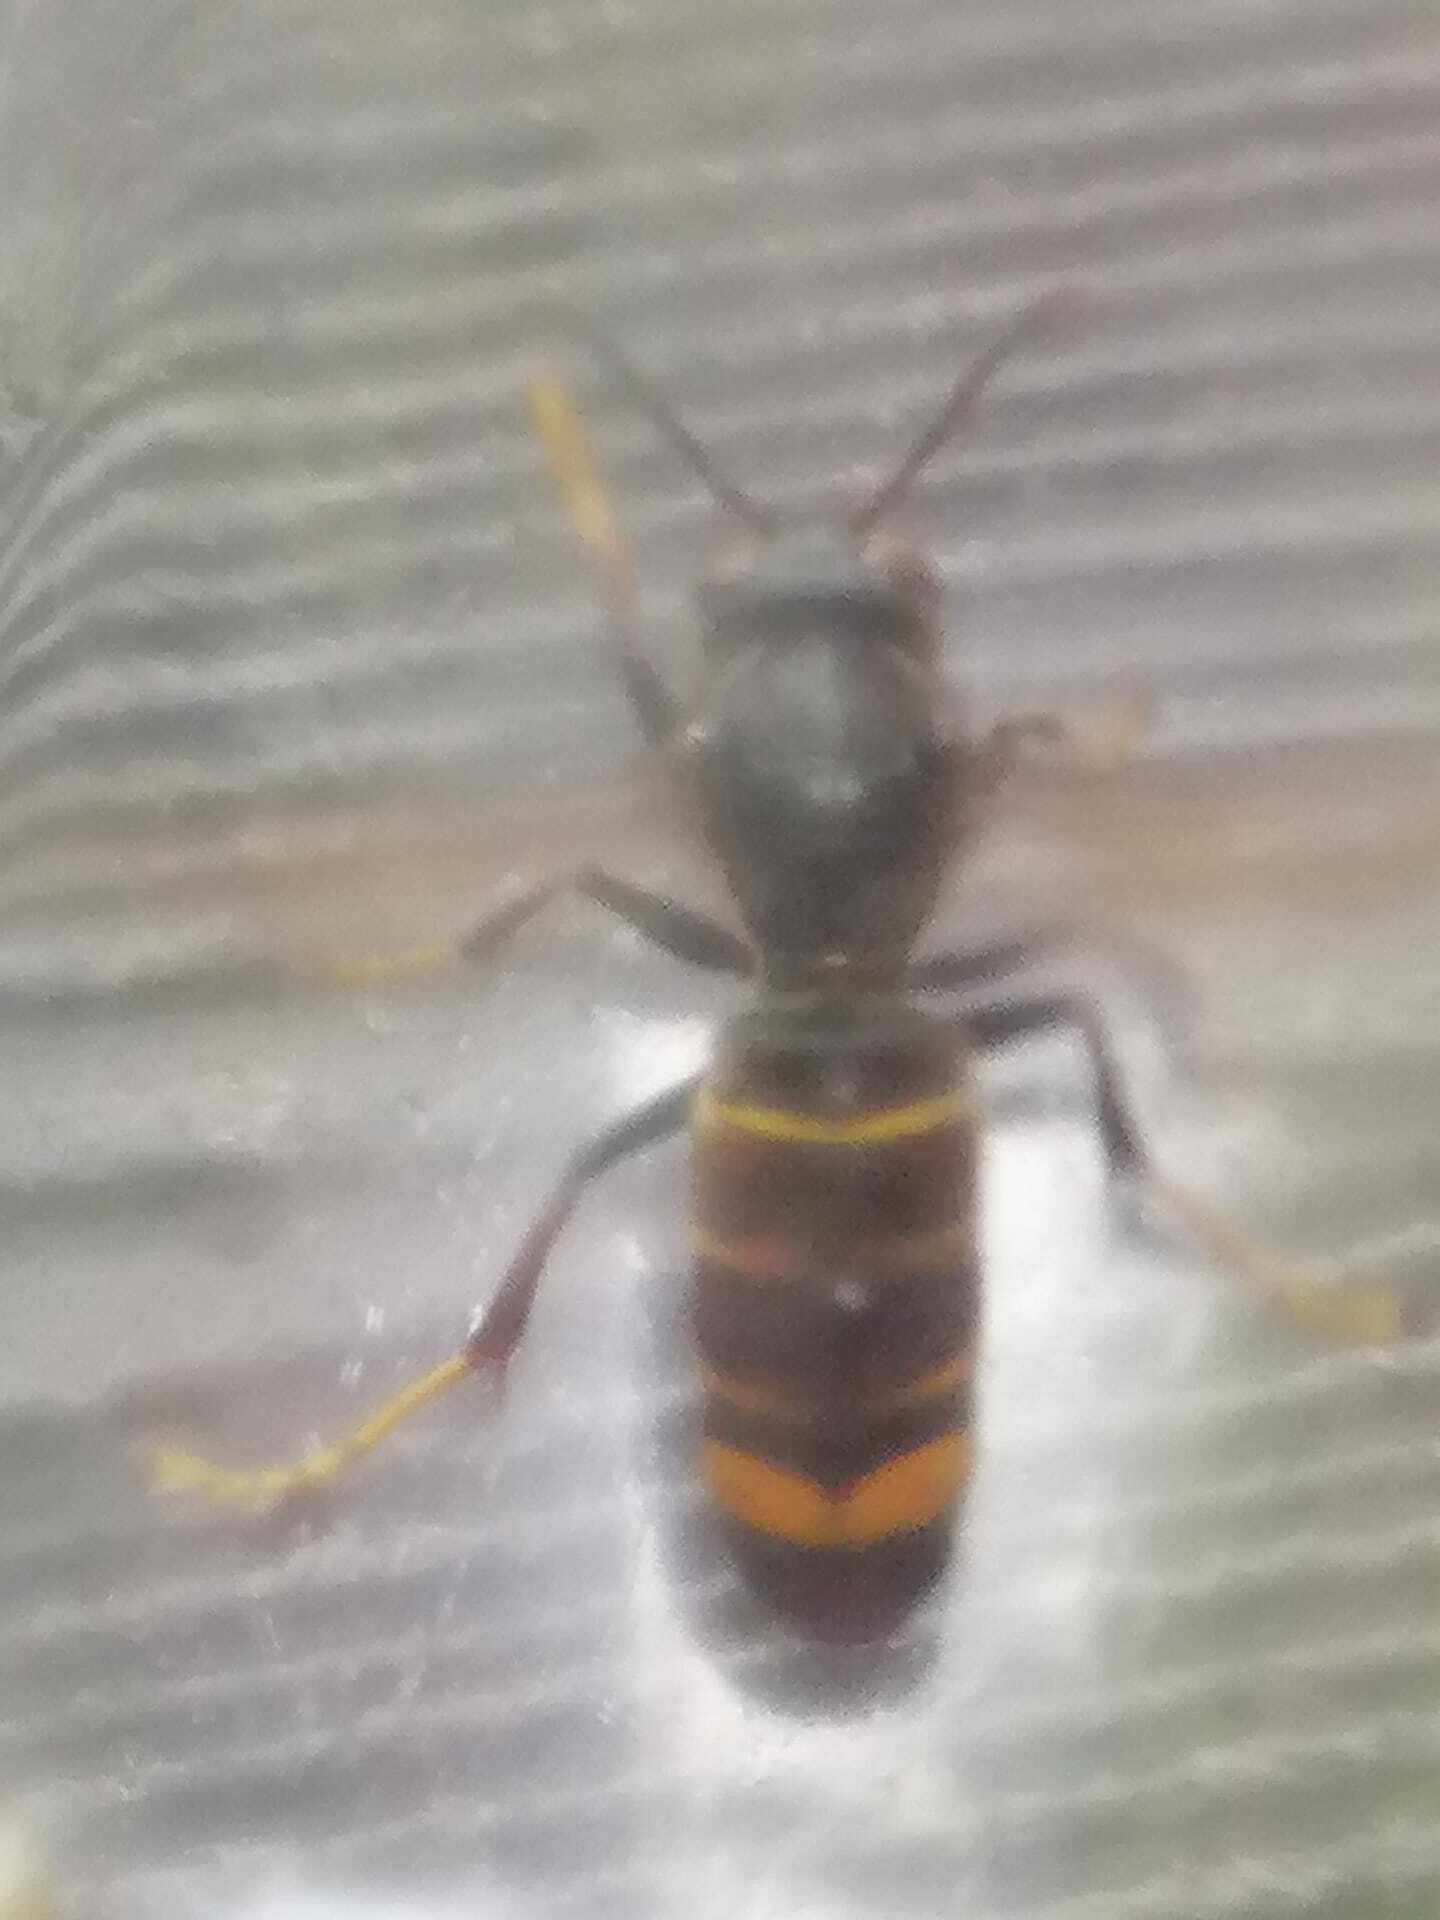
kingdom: Animalia
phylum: Arthropoda
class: Insecta
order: Hymenoptera
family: Vespidae
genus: Vespa
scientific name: Vespa velutina
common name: Asian hornet
